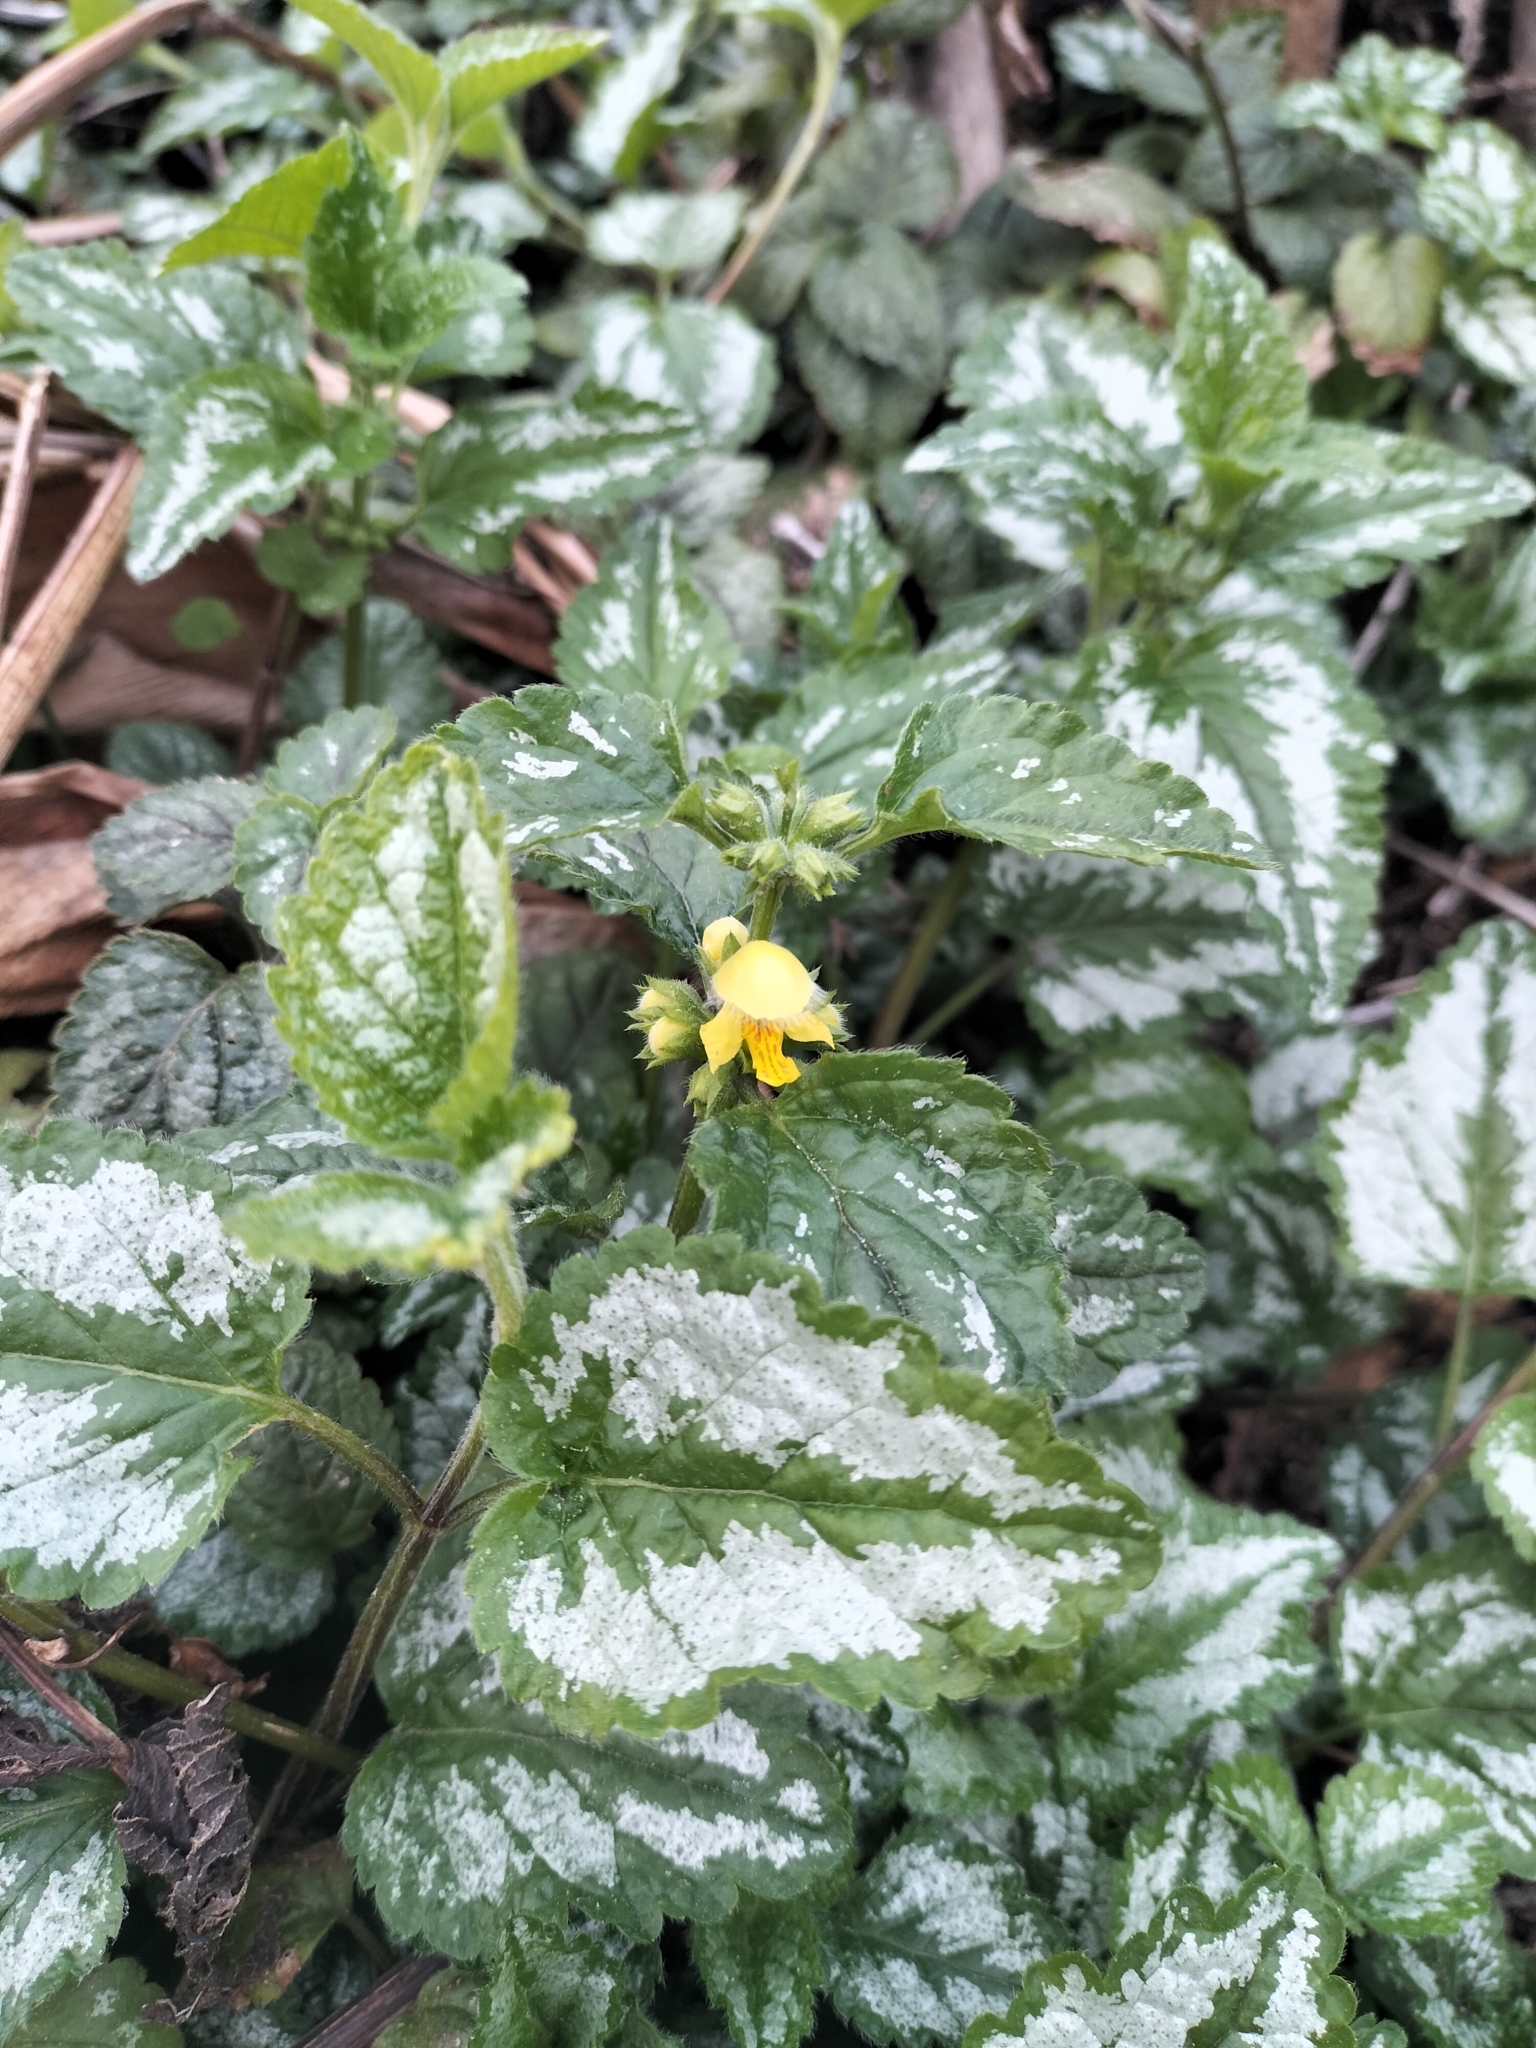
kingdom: Plantae
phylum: Tracheophyta
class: Magnoliopsida
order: Lamiales
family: Lamiaceae
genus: Lamium
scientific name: Lamium galeobdolon
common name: Yellow archangel
